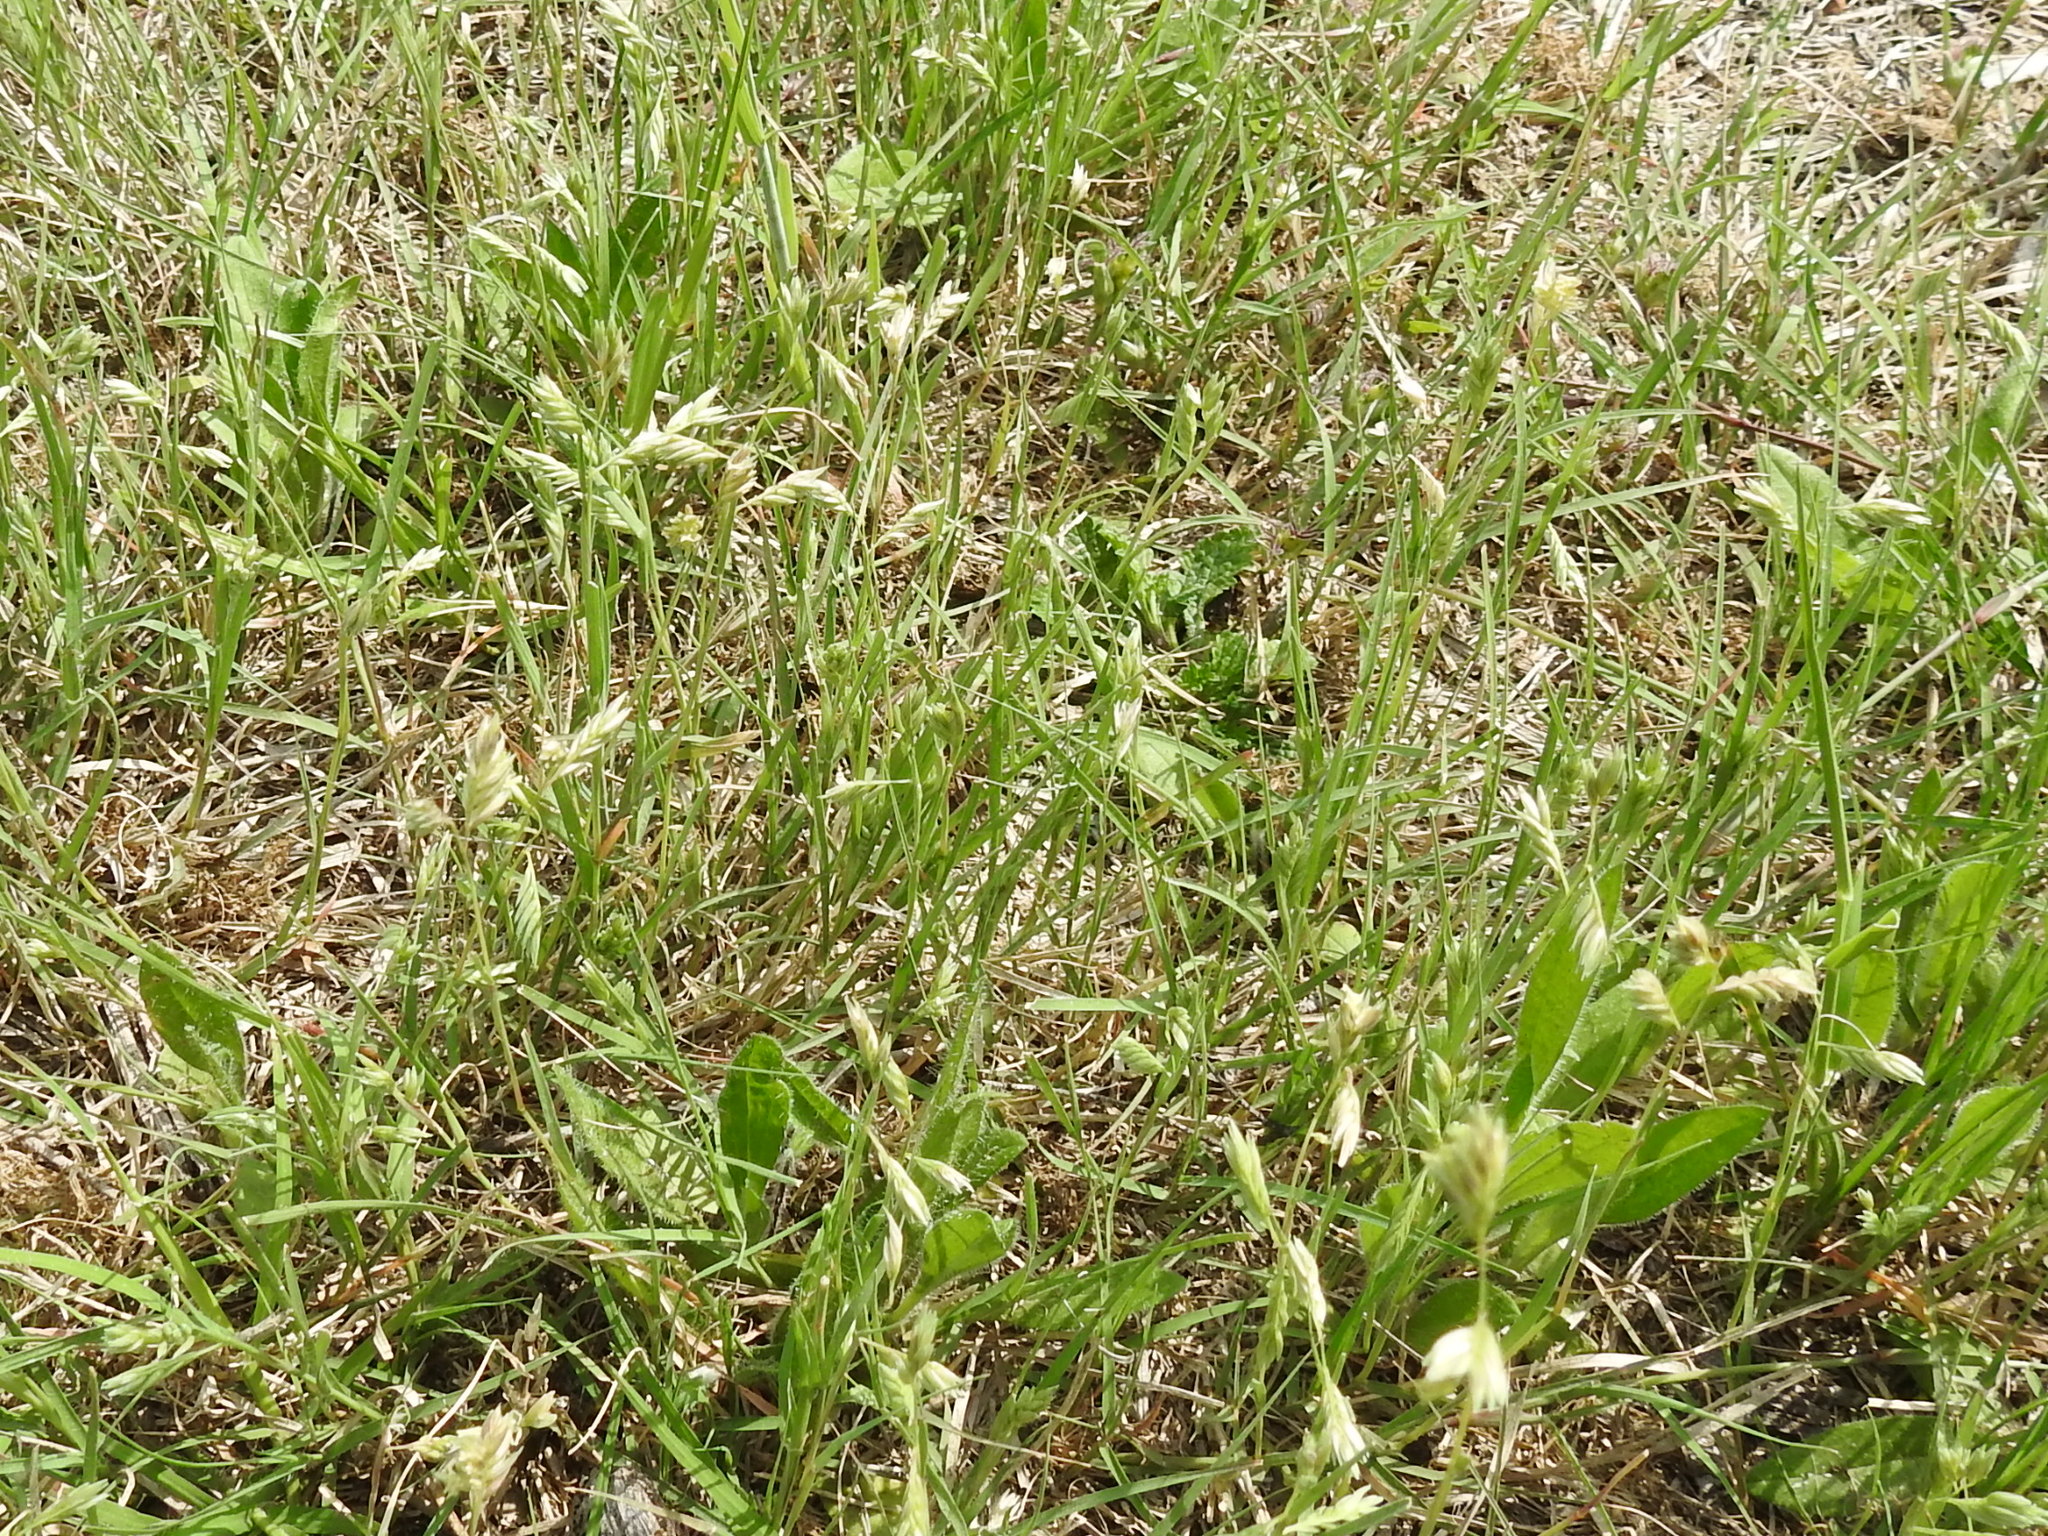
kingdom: Plantae
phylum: Tracheophyta
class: Liliopsida
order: Poales
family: Poaceae
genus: Bouteloua
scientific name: Bouteloua dactyloides
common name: Buffalo grass
